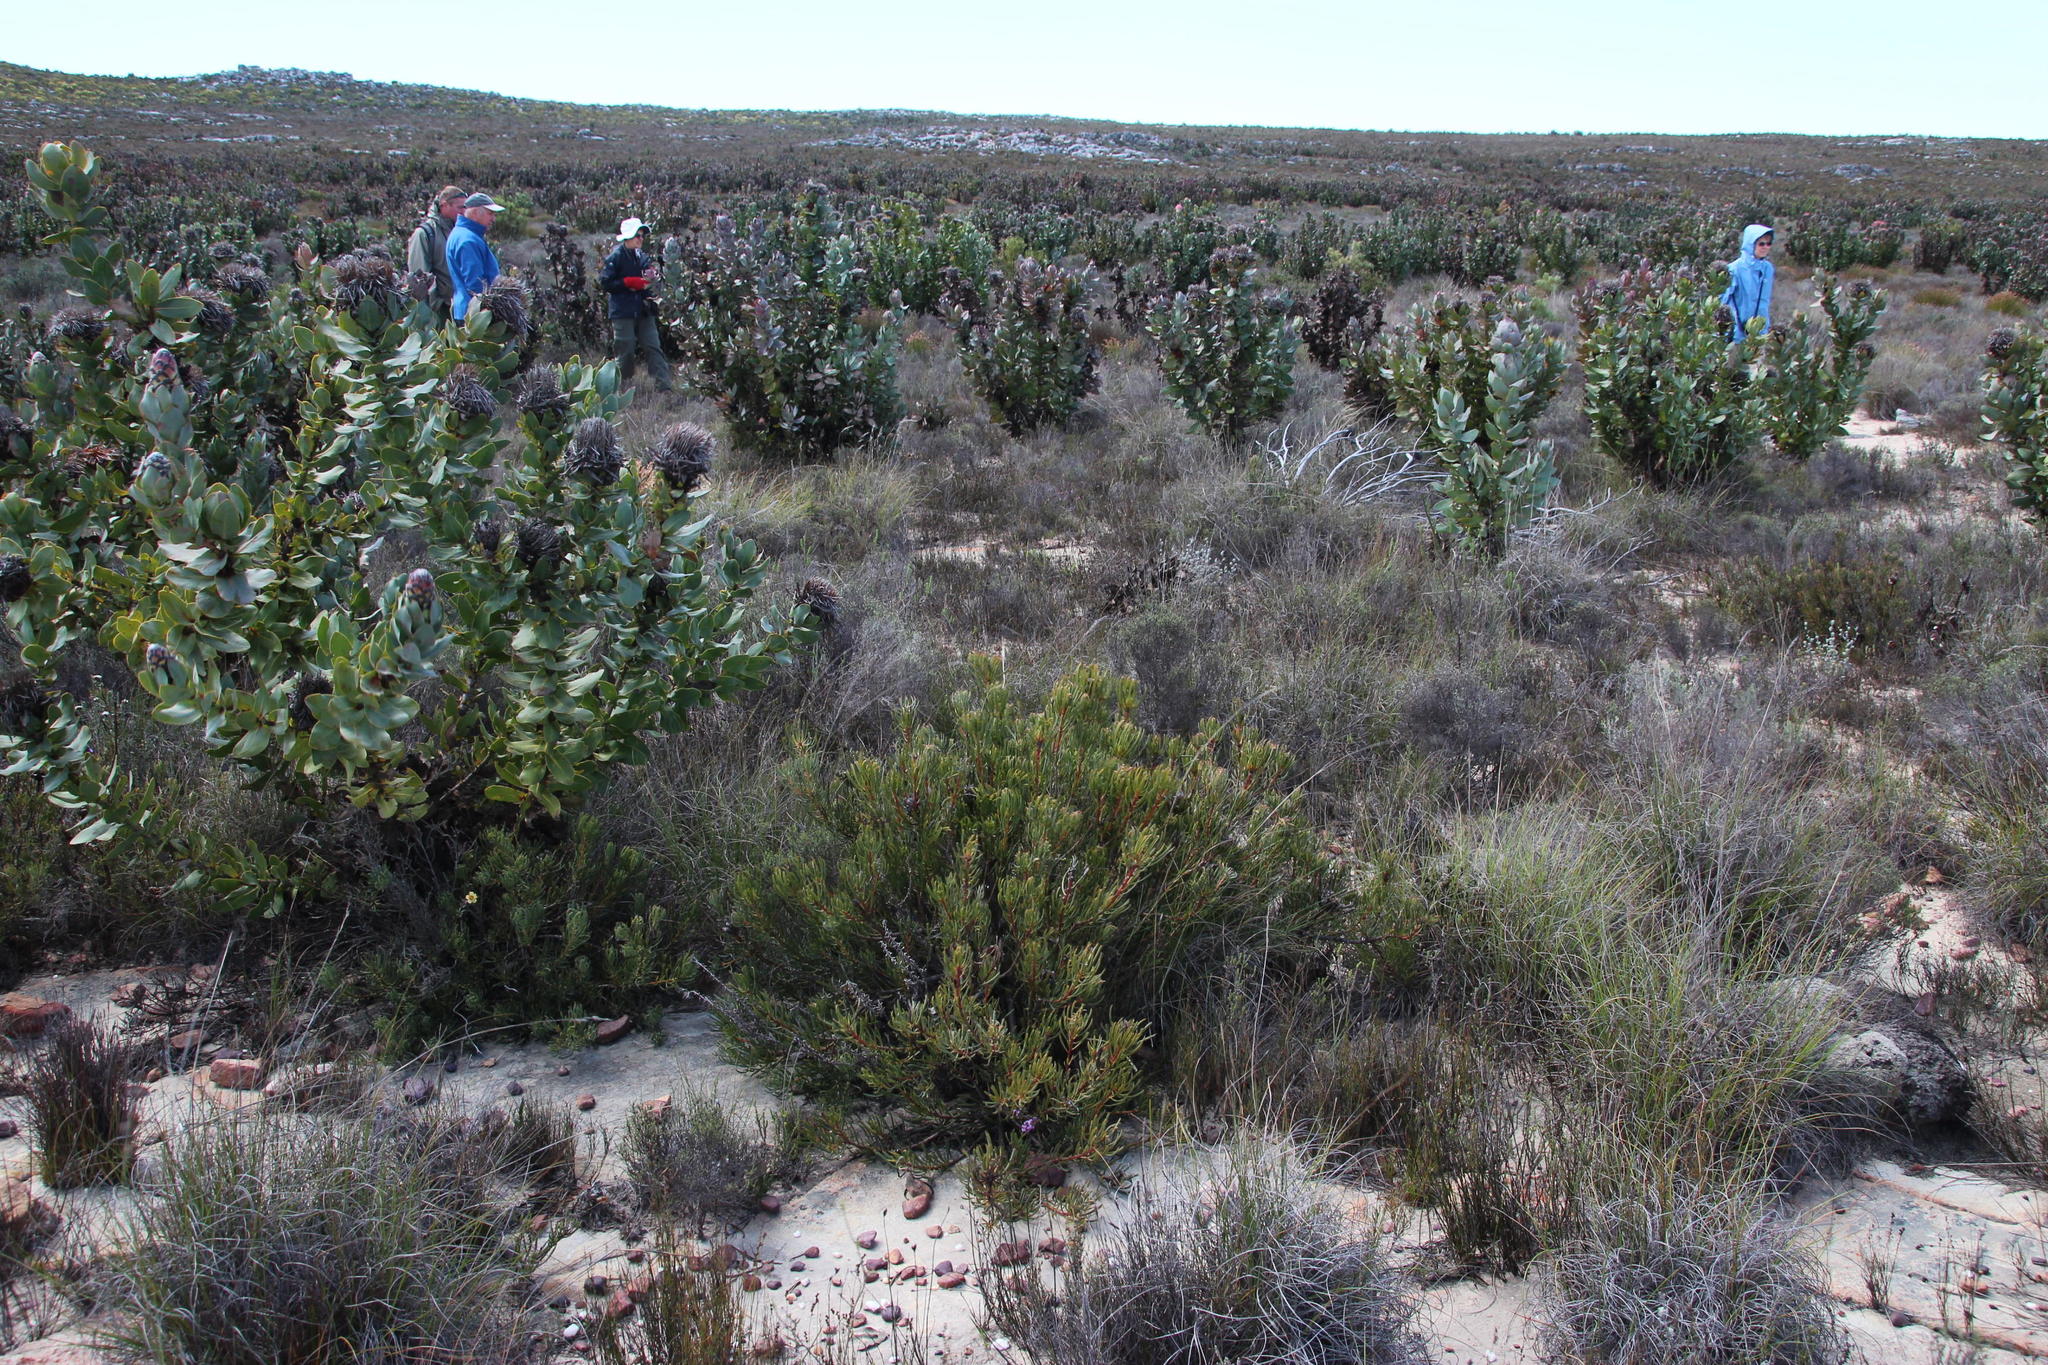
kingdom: Plantae
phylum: Tracheophyta
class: Magnoliopsida
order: Proteales
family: Proteaceae
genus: Protea
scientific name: Protea canaliculata
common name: Groove-leaf sugarbush
